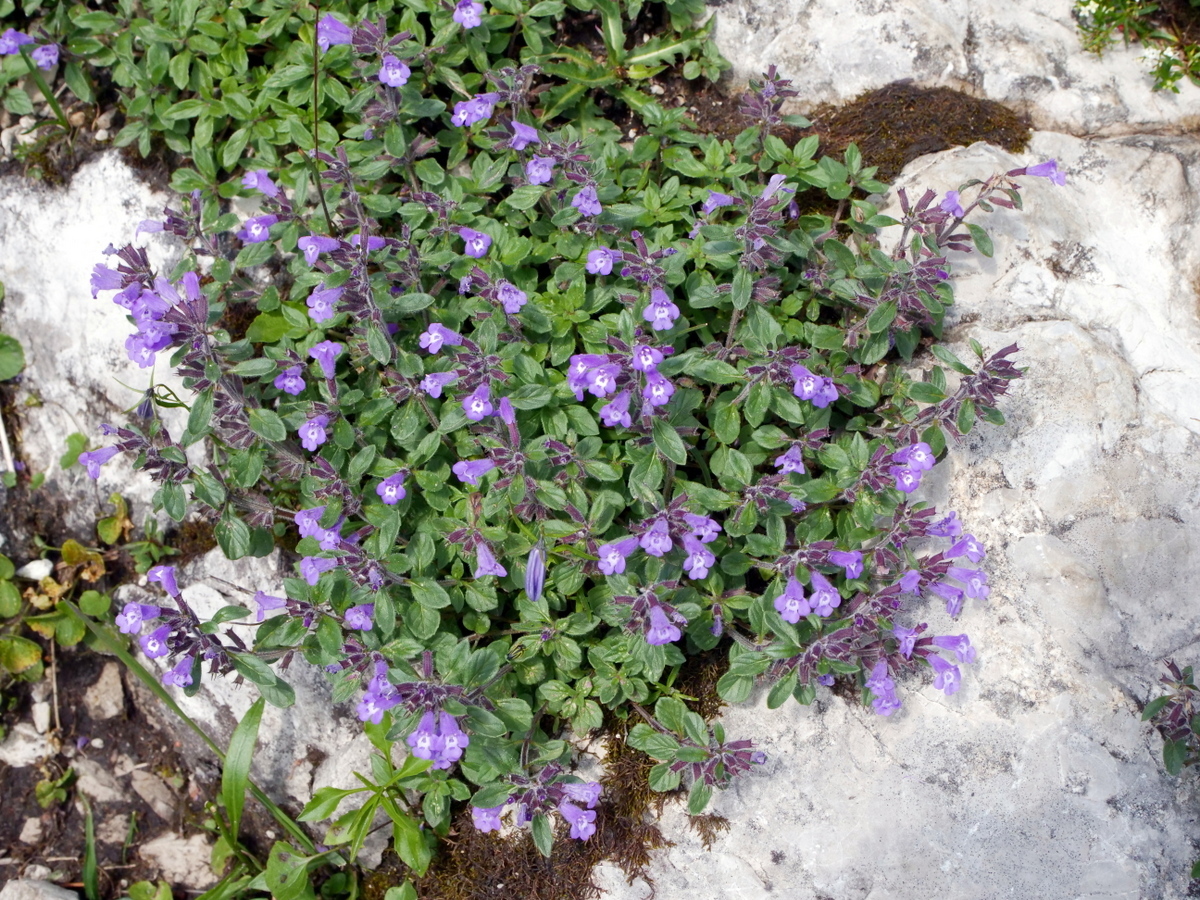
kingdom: Plantae
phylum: Tracheophyta
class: Magnoliopsida
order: Lamiales
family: Lamiaceae
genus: Clinopodium
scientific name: Clinopodium alpinum
